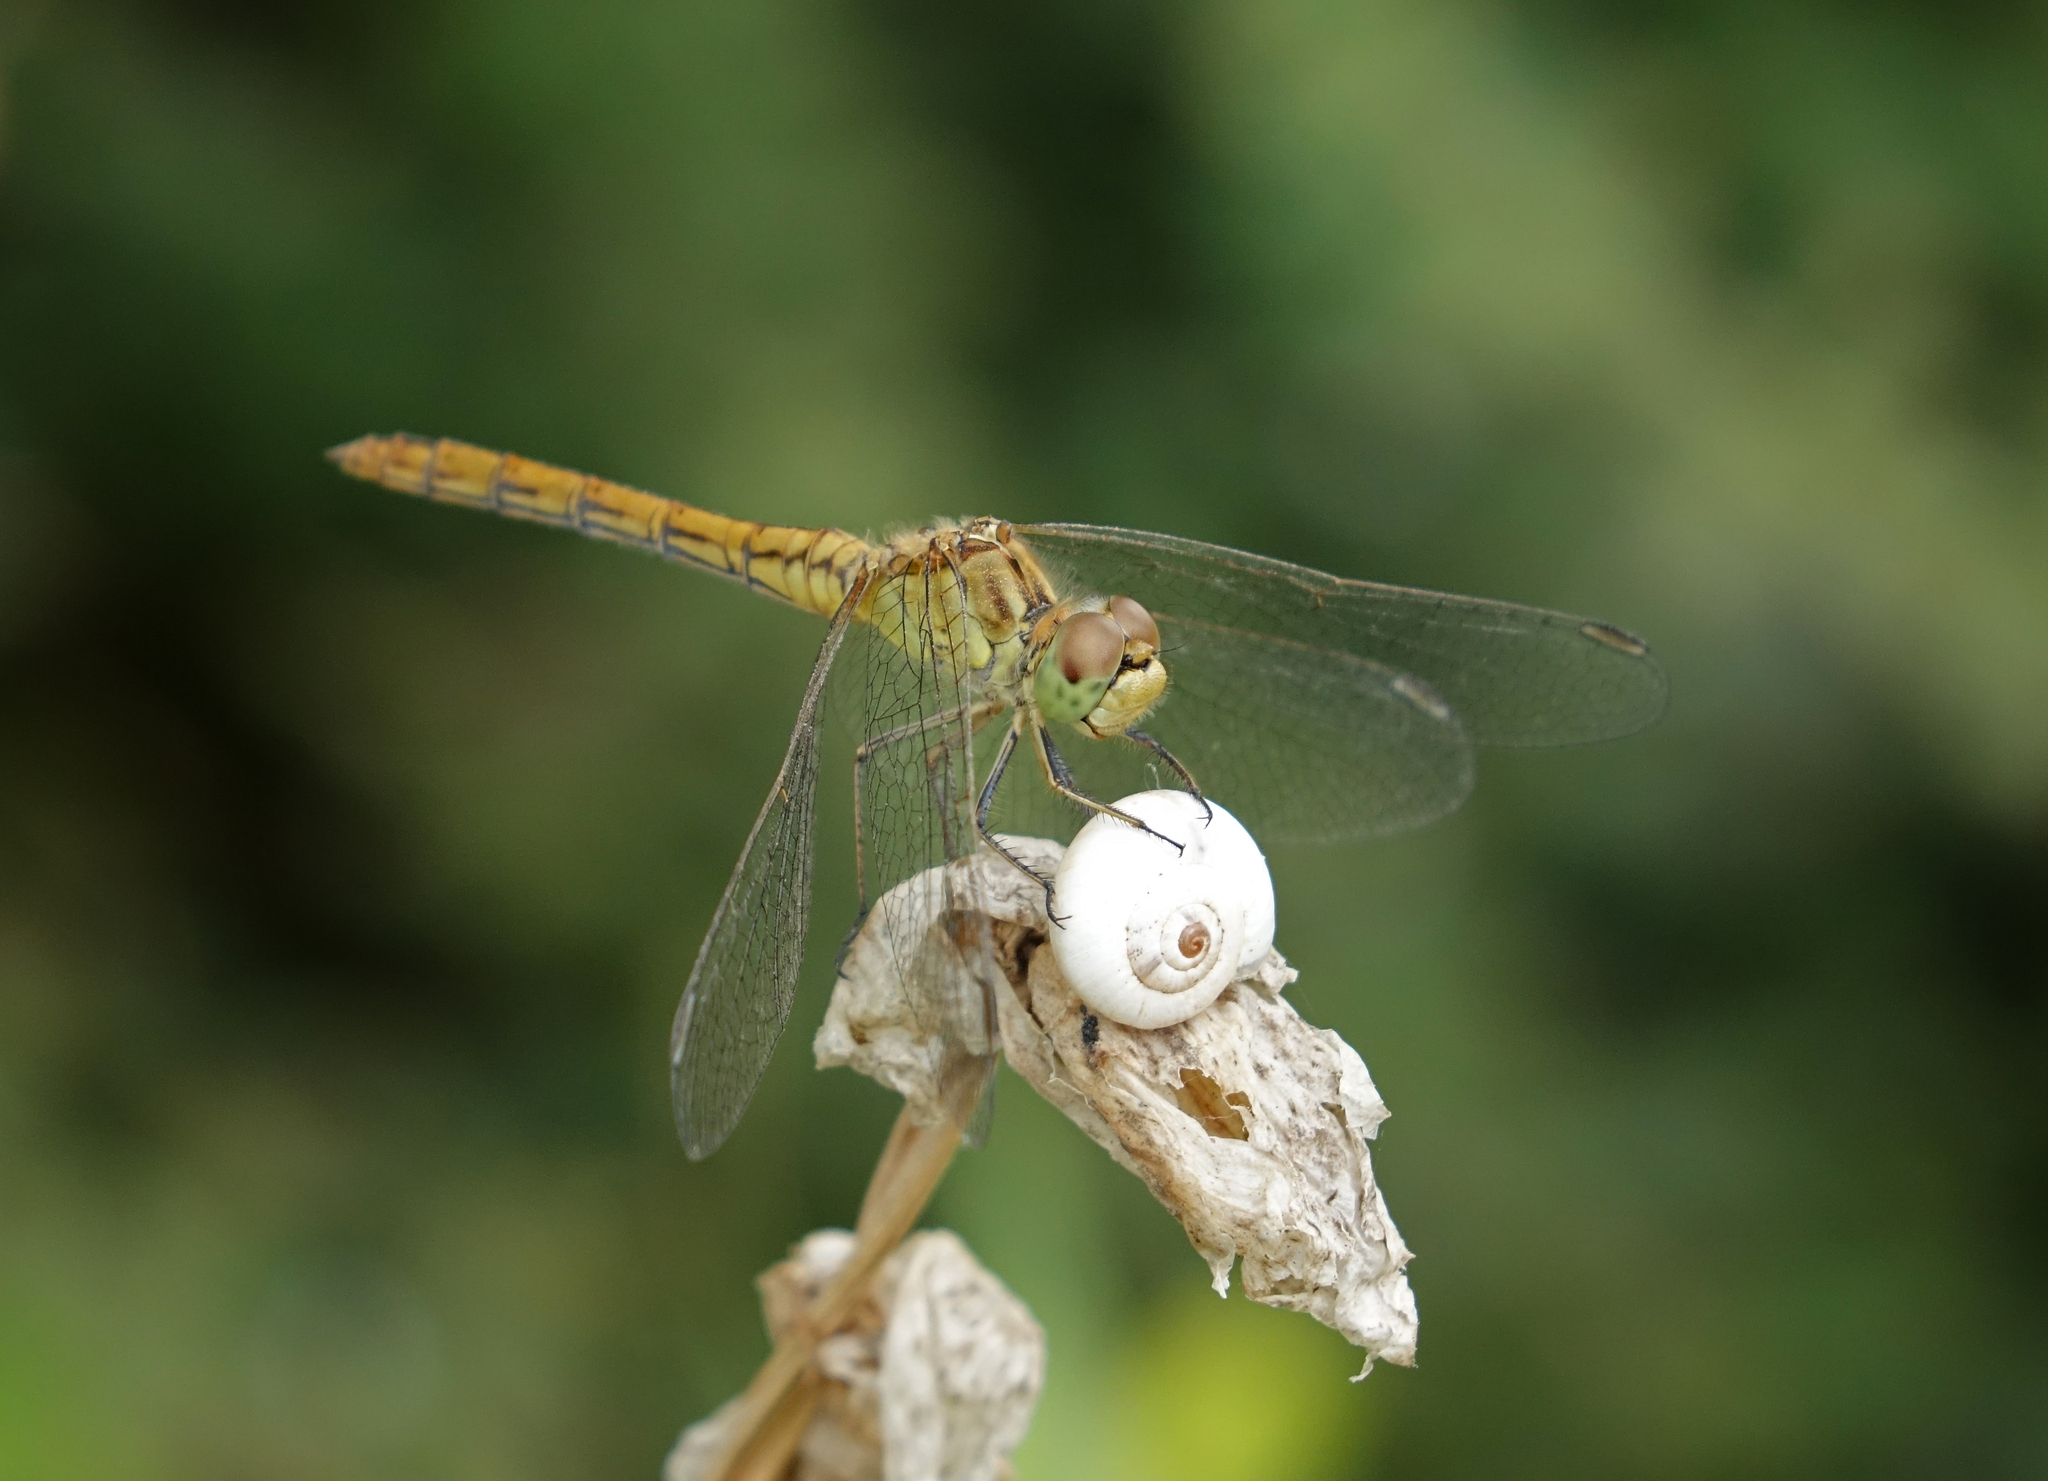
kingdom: Animalia
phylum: Arthropoda
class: Insecta
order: Odonata
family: Libellulidae
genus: Sympetrum
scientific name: Sympetrum meridionale
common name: Southern darter
